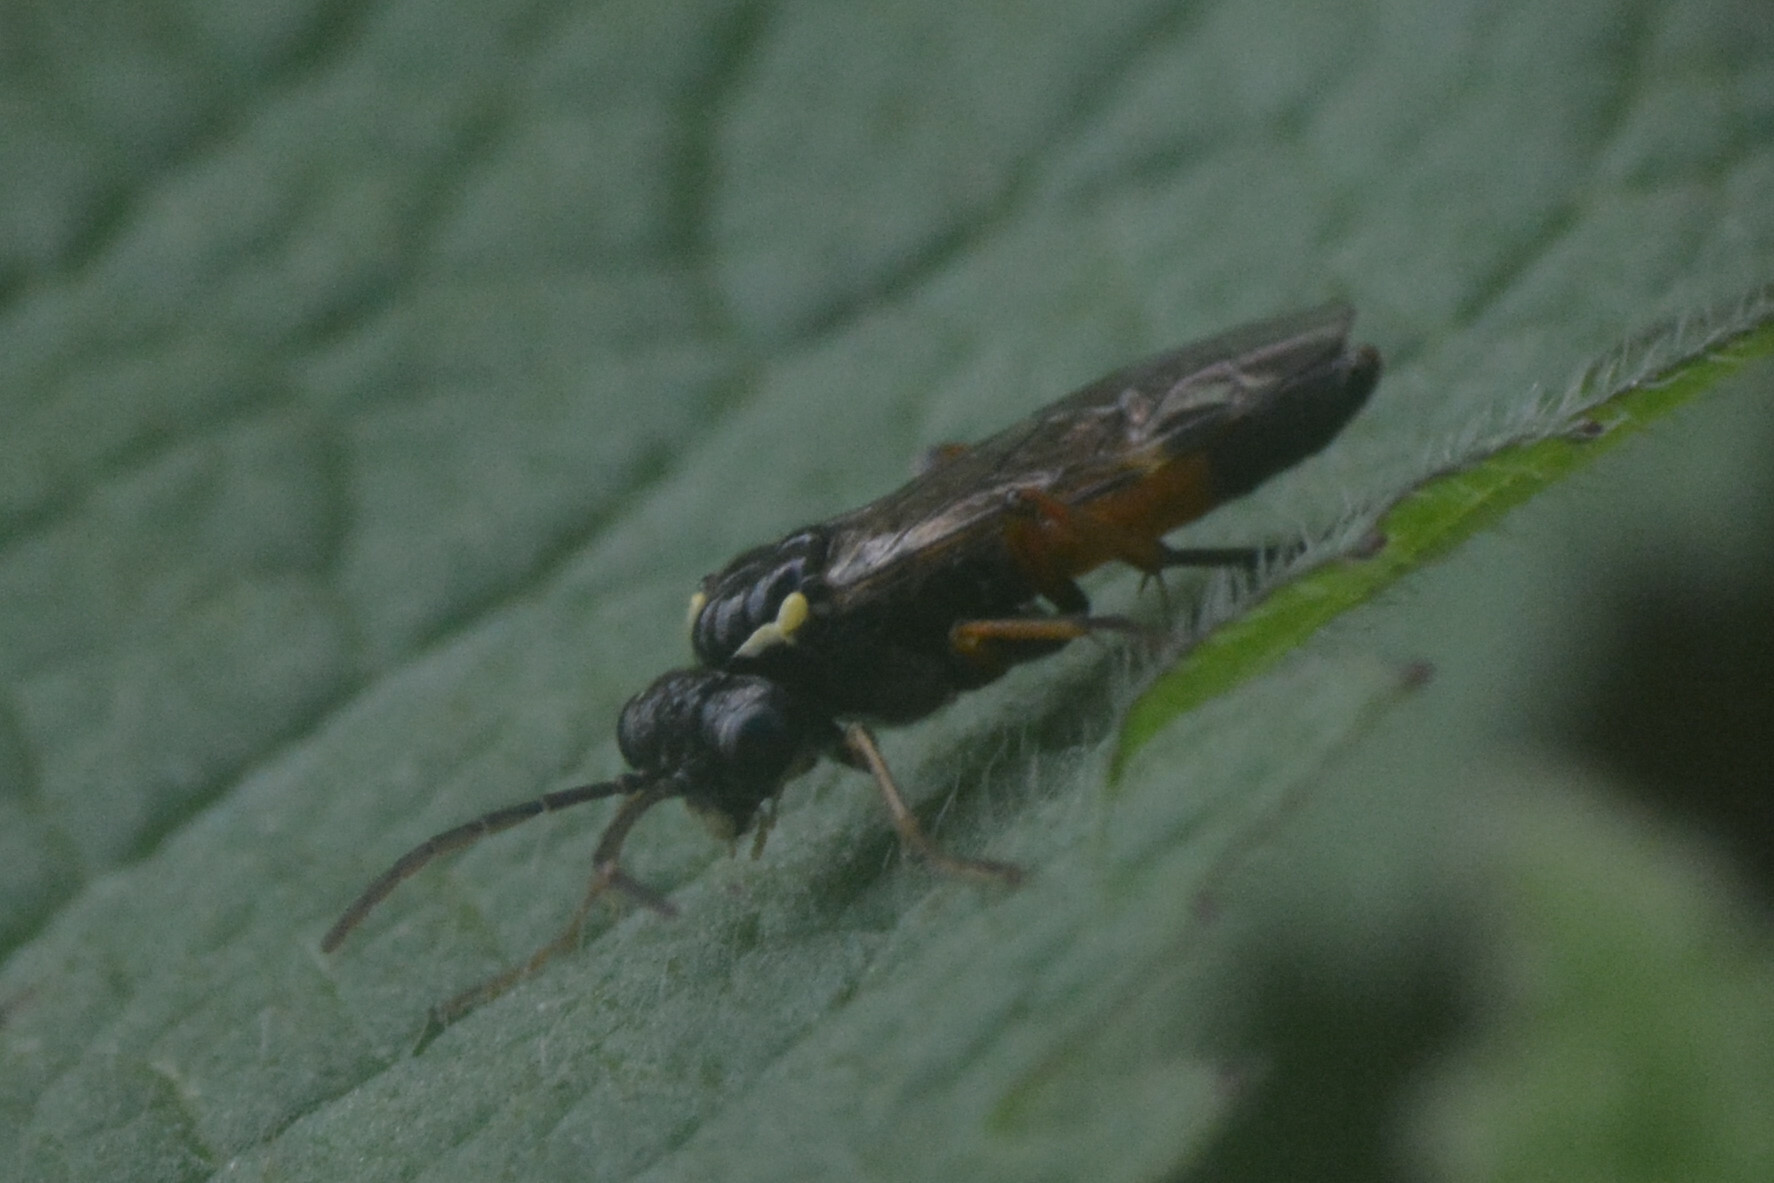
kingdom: Animalia
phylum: Arthropoda
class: Insecta
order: Hymenoptera
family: Tenthredinidae
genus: Aglaostigma
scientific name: Aglaostigma aucupariae
